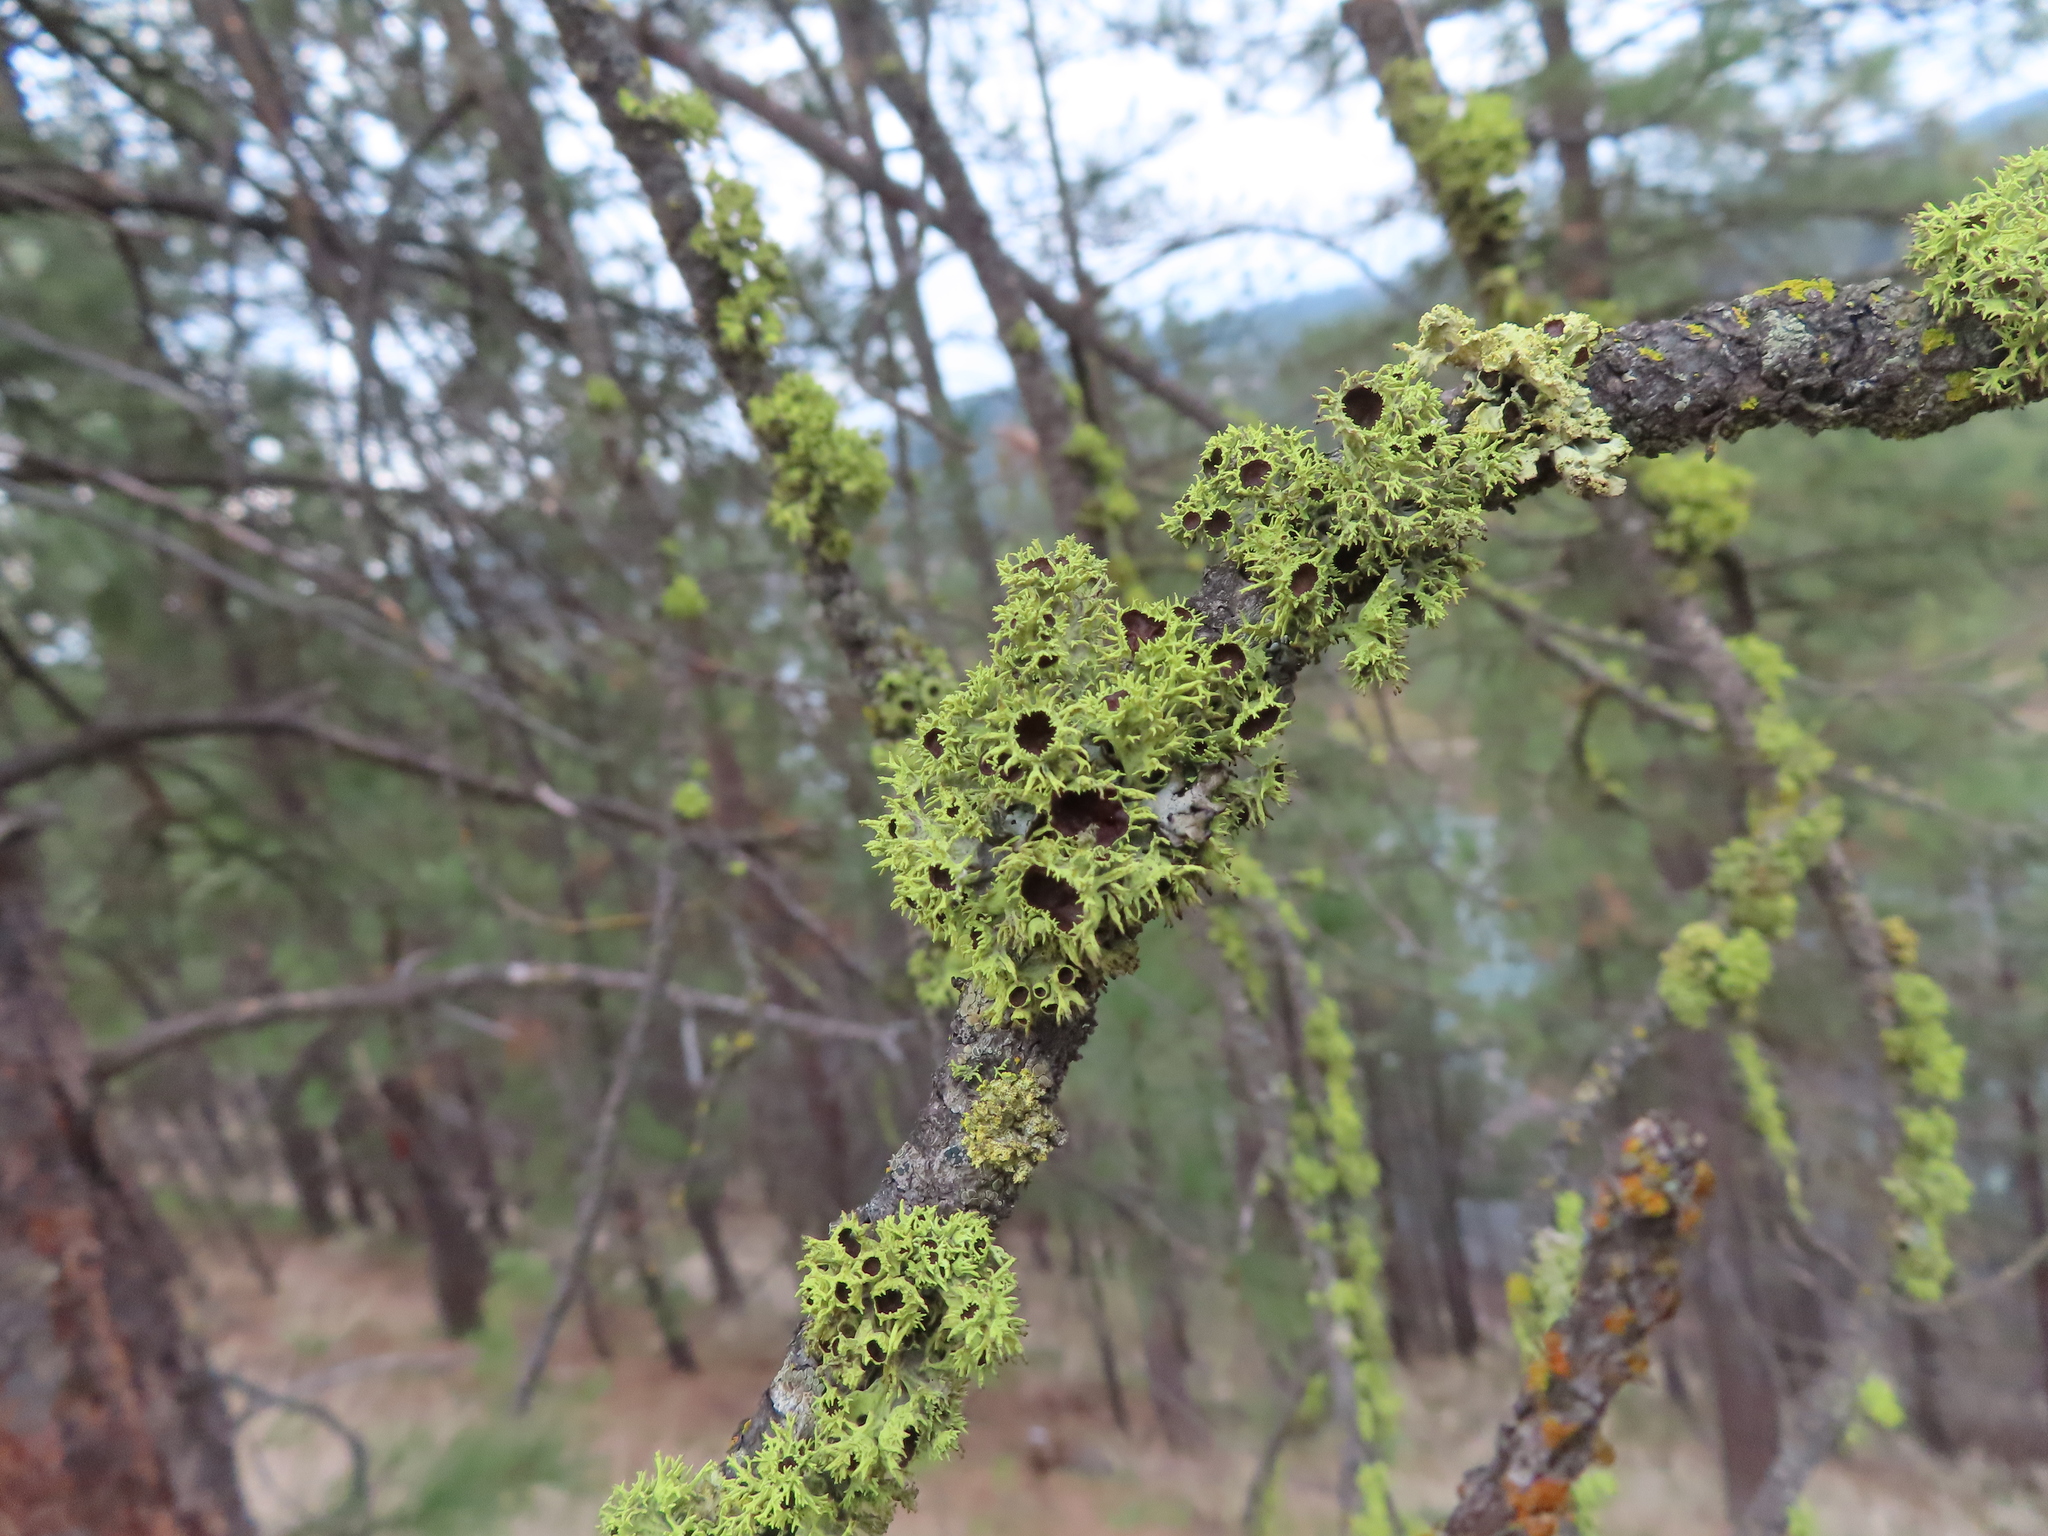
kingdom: Fungi
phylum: Ascomycota
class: Lecanoromycetes
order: Lecanorales
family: Parmeliaceae
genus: Letharia
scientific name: Letharia columbiana
